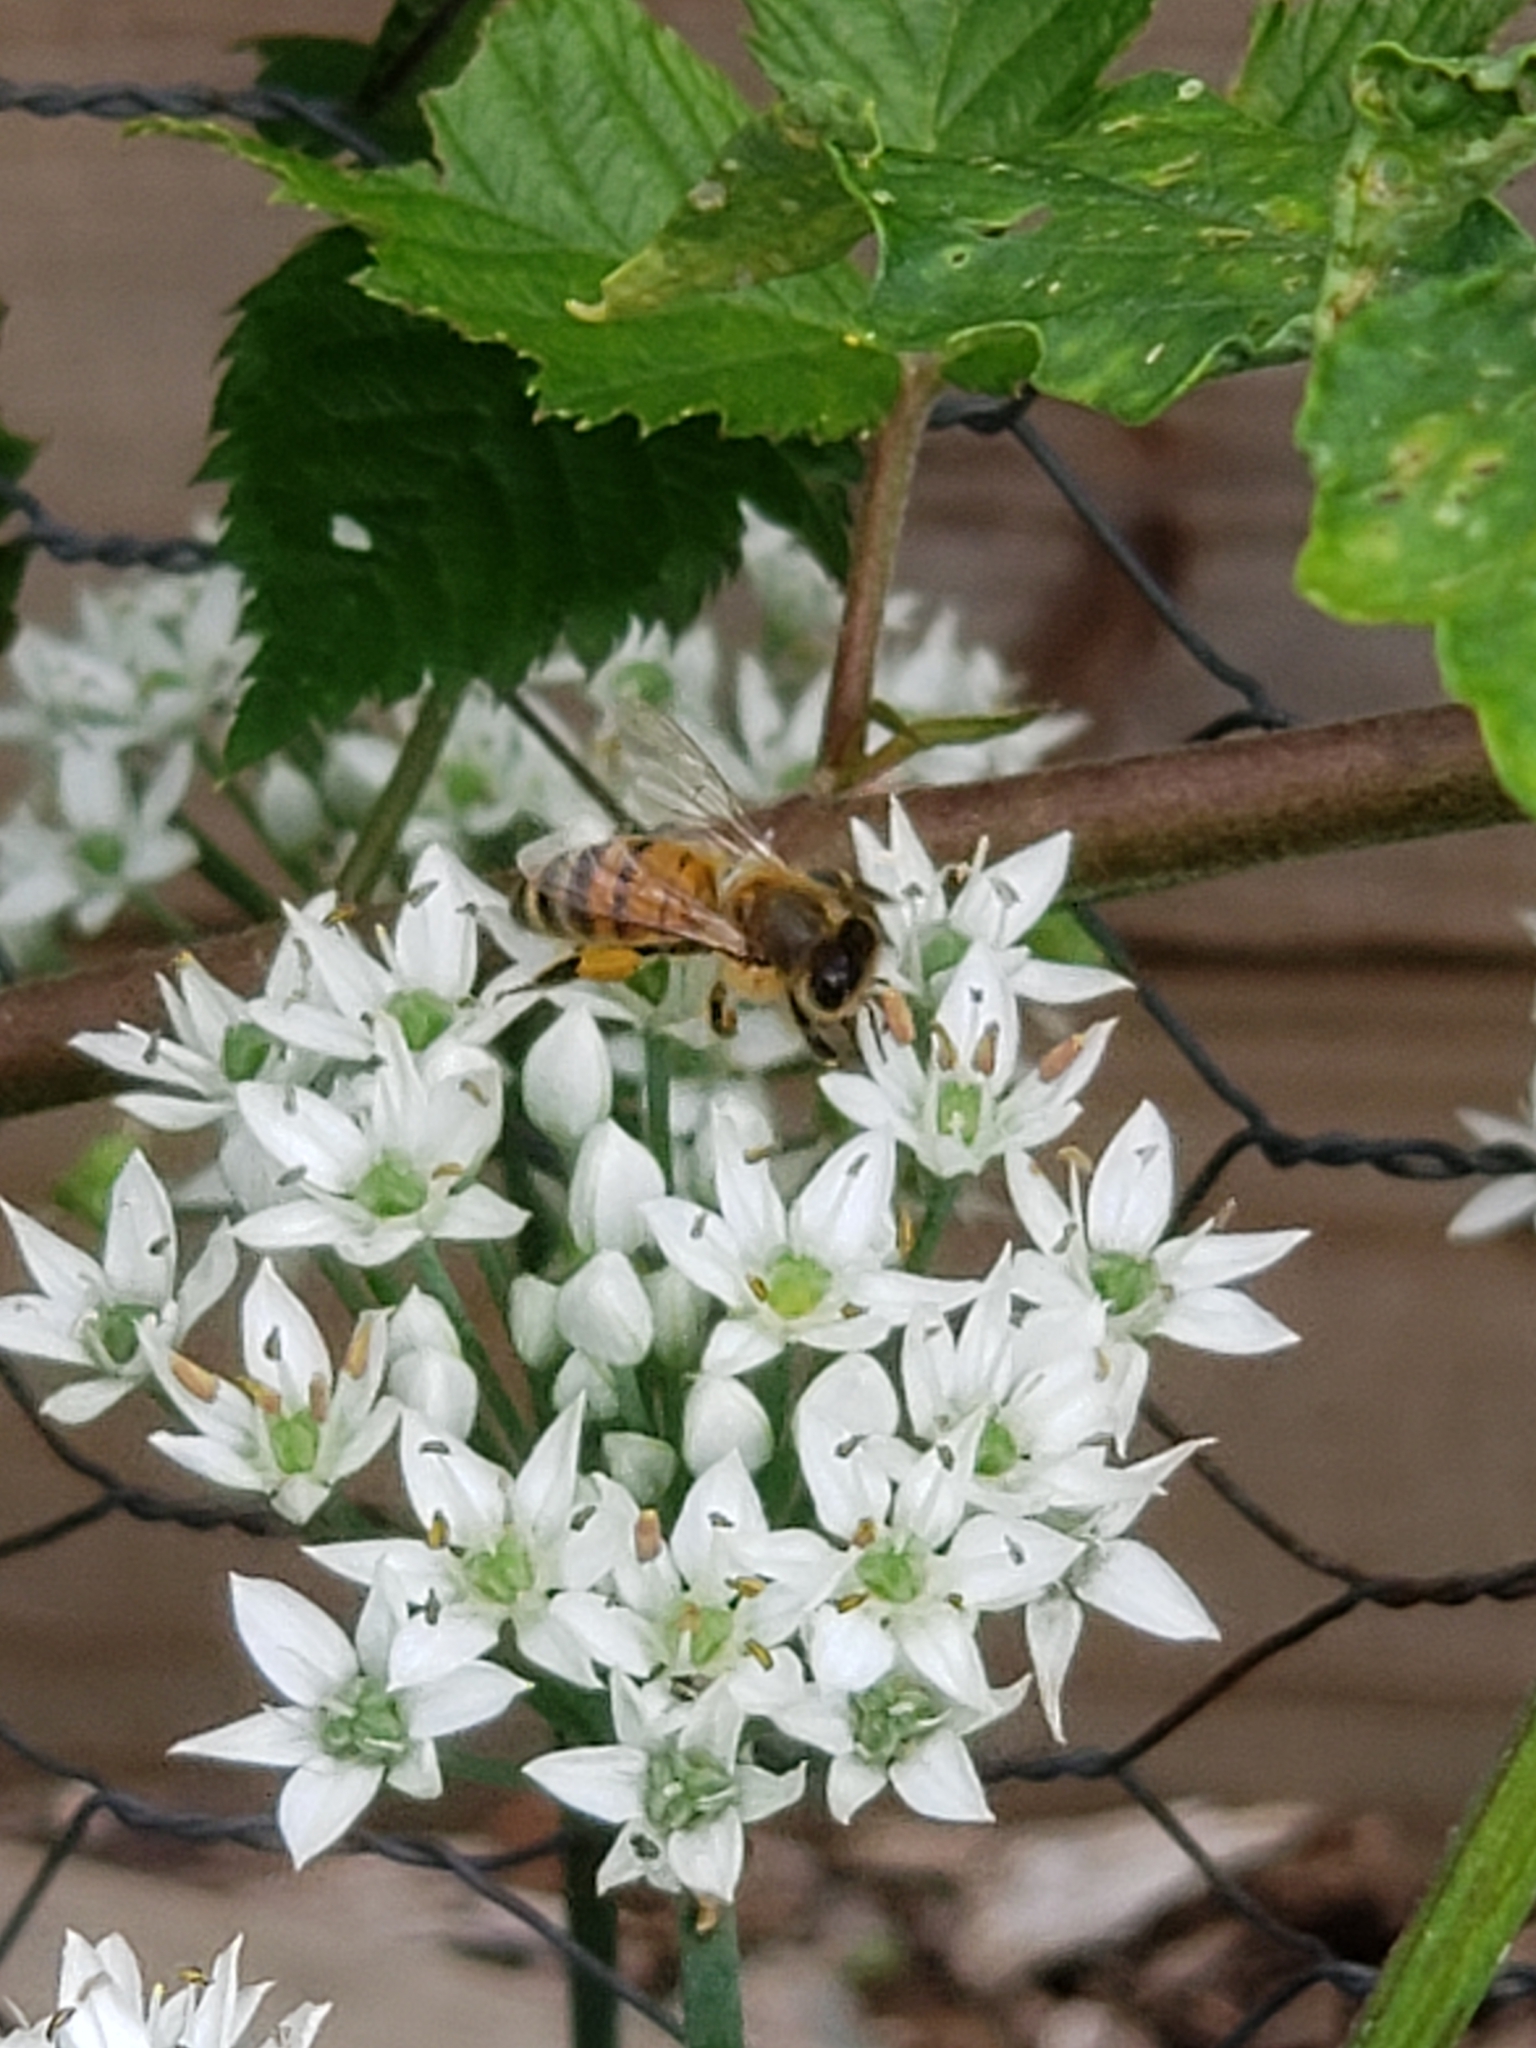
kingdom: Animalia
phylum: Arthropoda
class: Insecta
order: Hymenoptera
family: Apidae
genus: Apis
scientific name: Apis mellifera
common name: Honey bee
